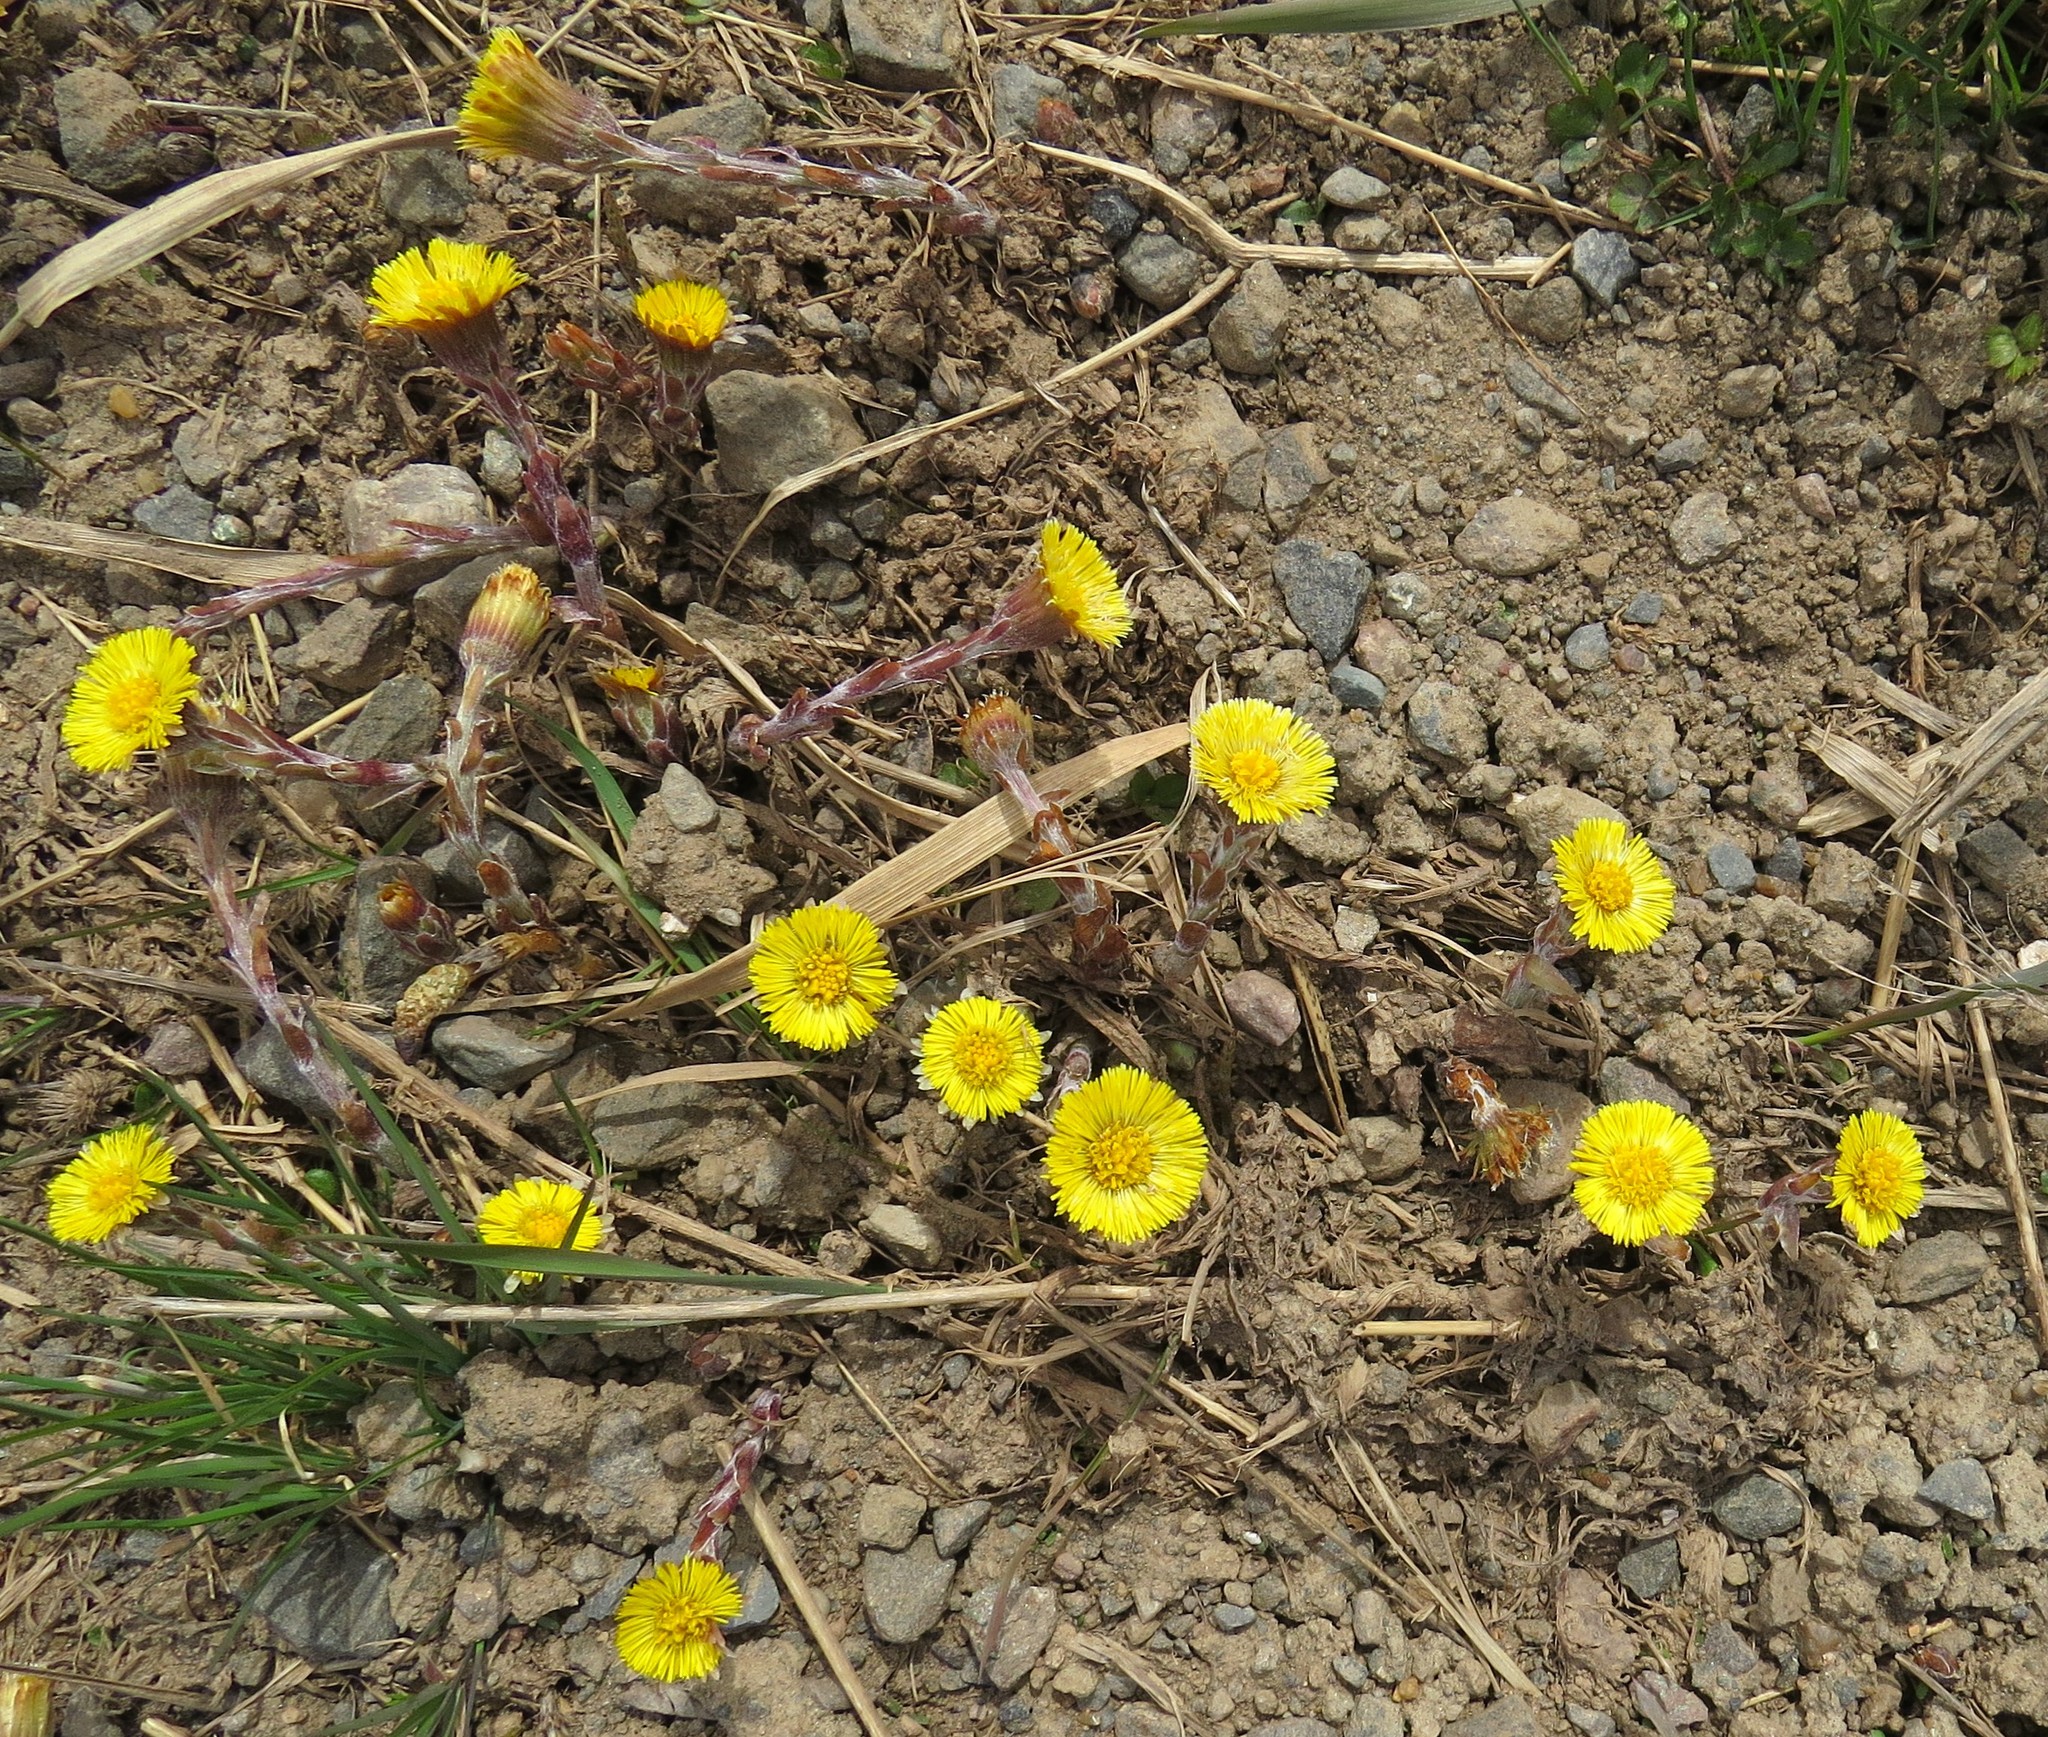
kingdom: Plantae
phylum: Tracheophyta
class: Magnoliopsida
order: Asterales
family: Asteraceae
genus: Tussilago
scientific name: Tussilago farfara
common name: Coltsfoot
